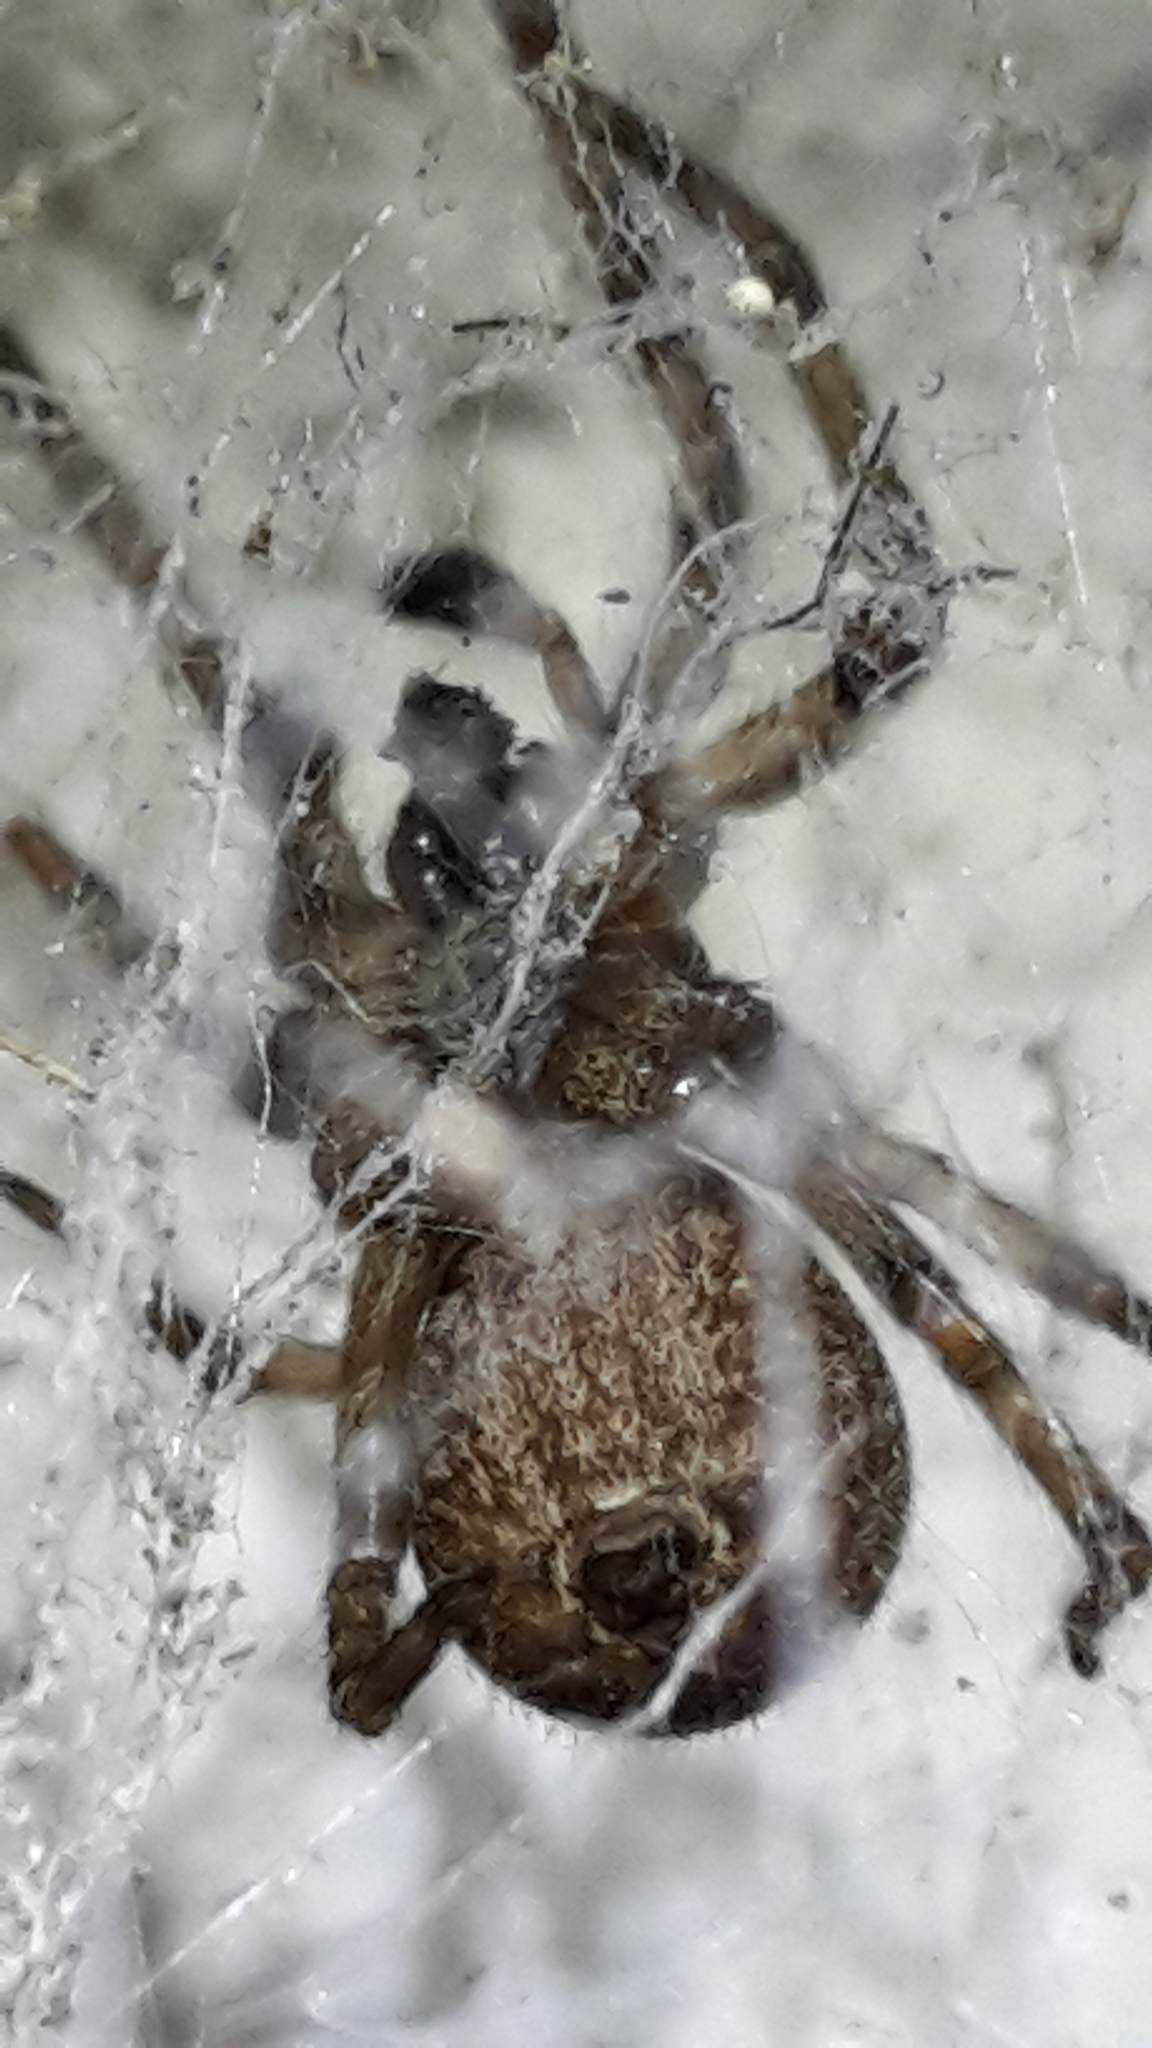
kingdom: Animalia
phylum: Arthropoda
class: Arachnida
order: Araneae
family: Desidae
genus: Badumna
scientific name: Badumna longinqua
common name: Gray house spider
